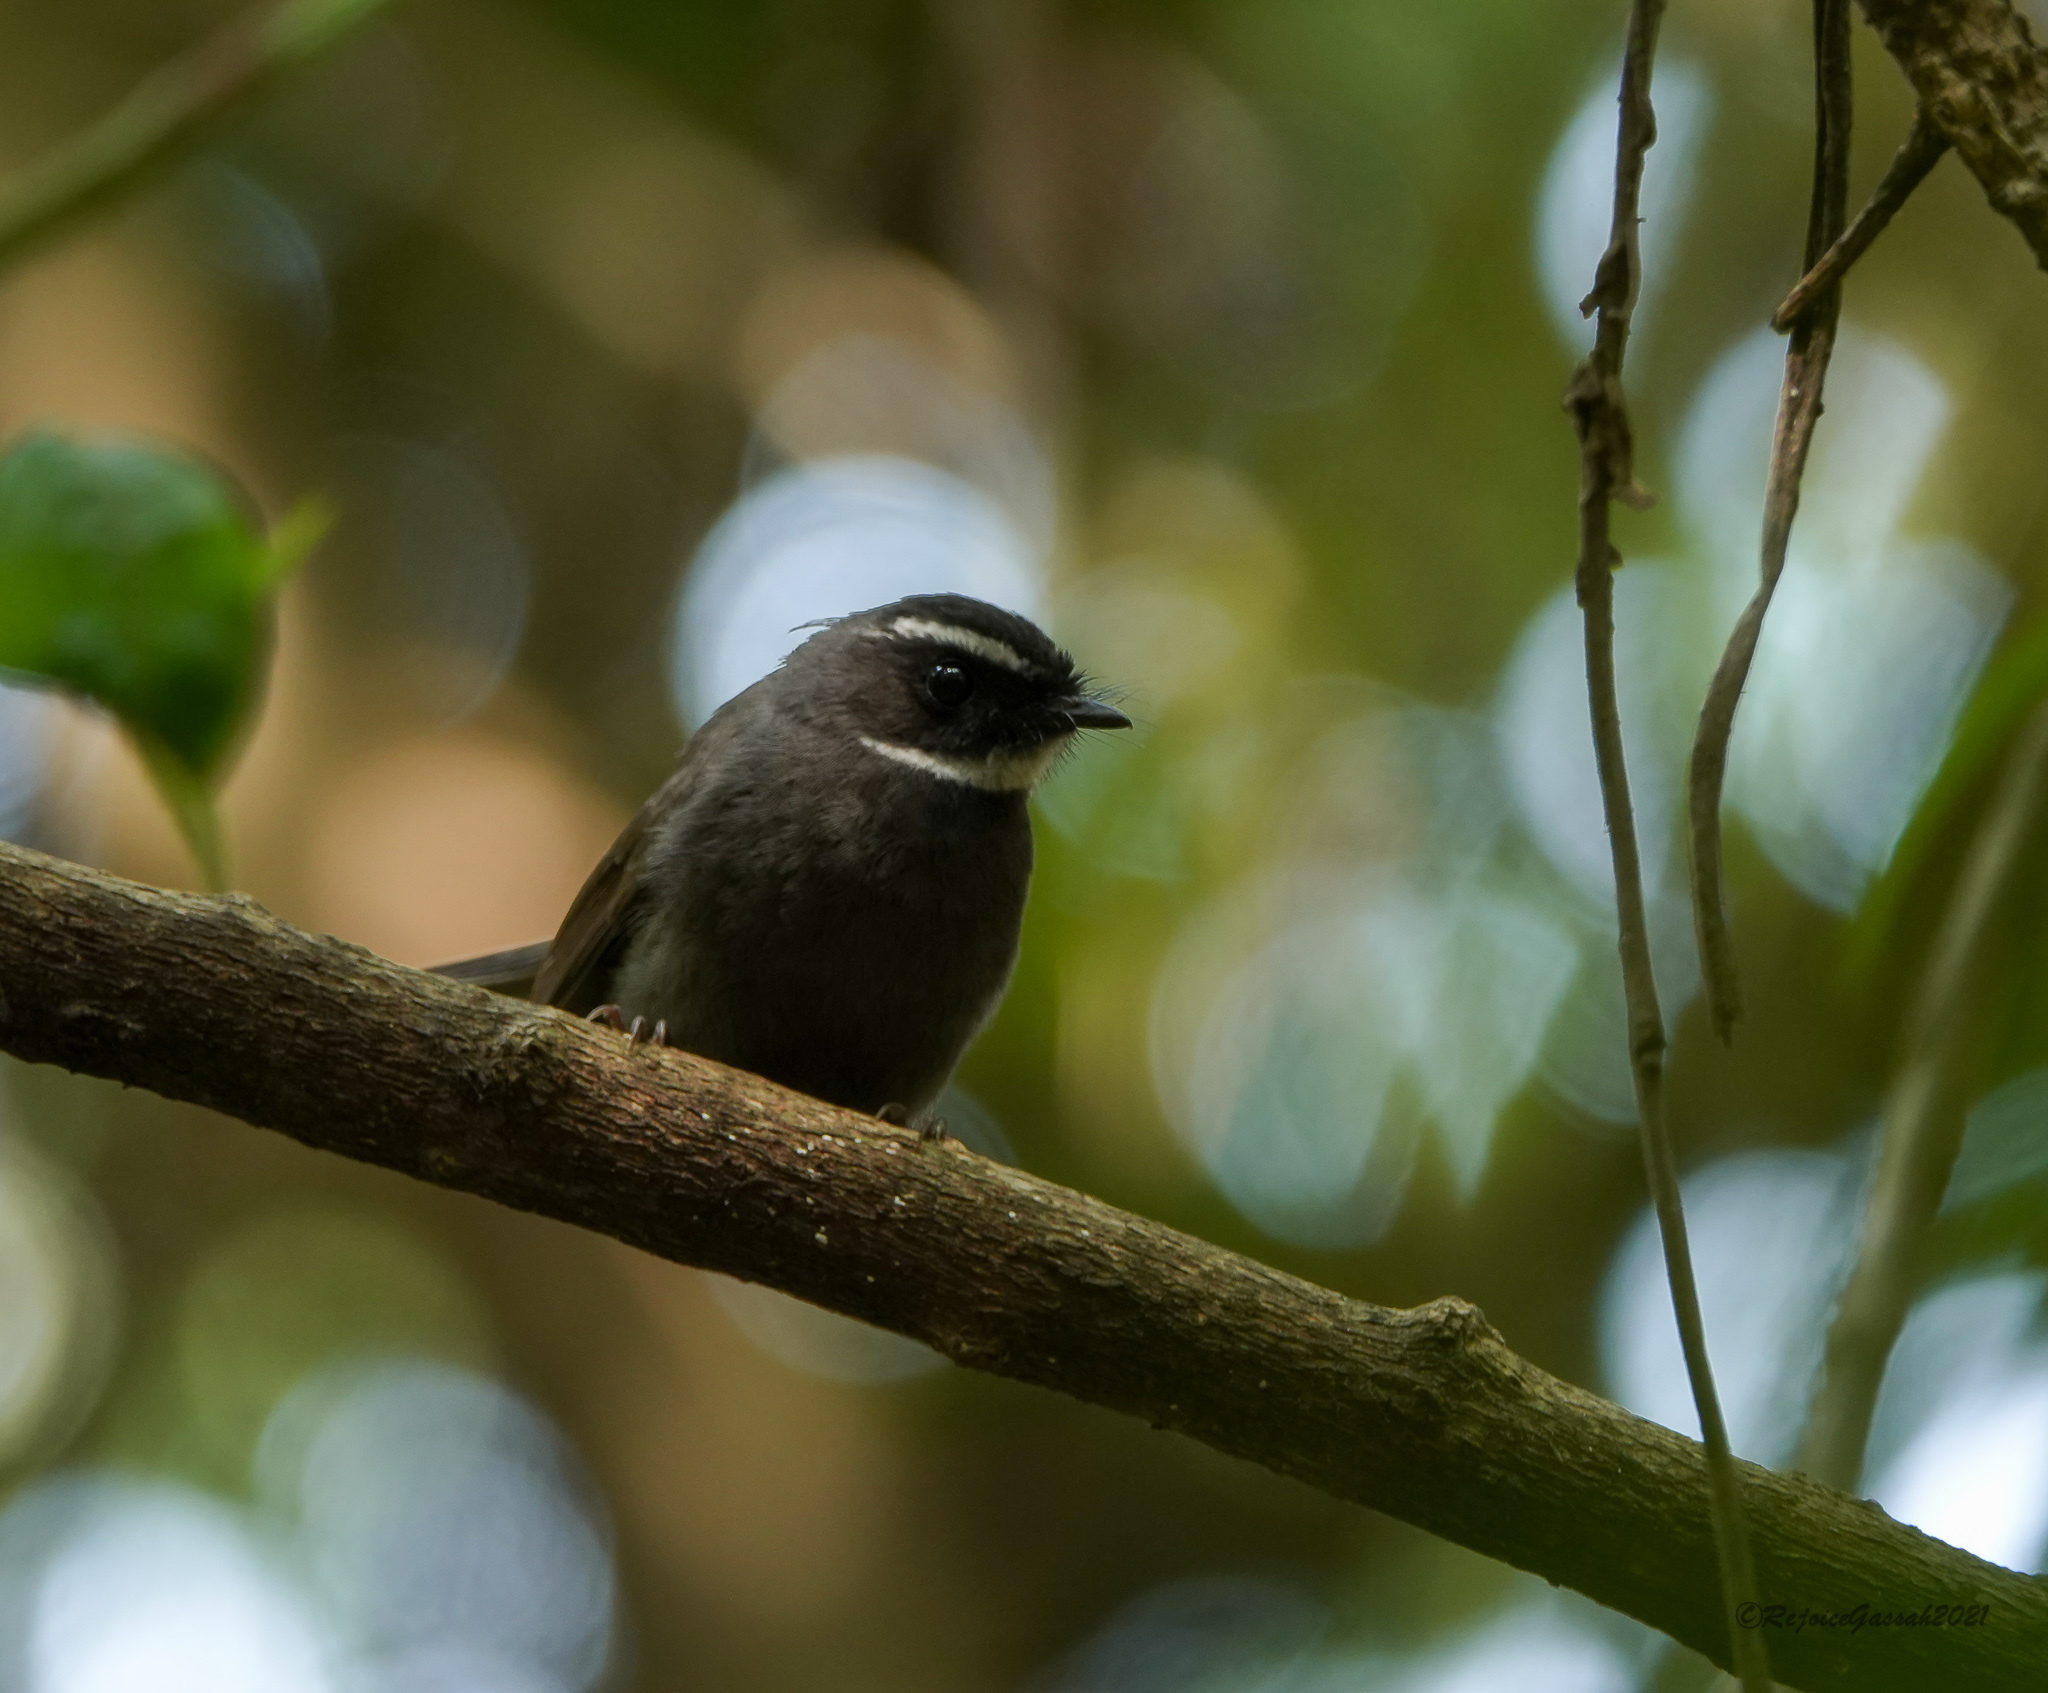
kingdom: Animalia
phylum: Chordata
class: Aves
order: Passeriformes
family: Rhipiduridae
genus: Rhipidura
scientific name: Rhipidura albicollis
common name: White-throated fantail
